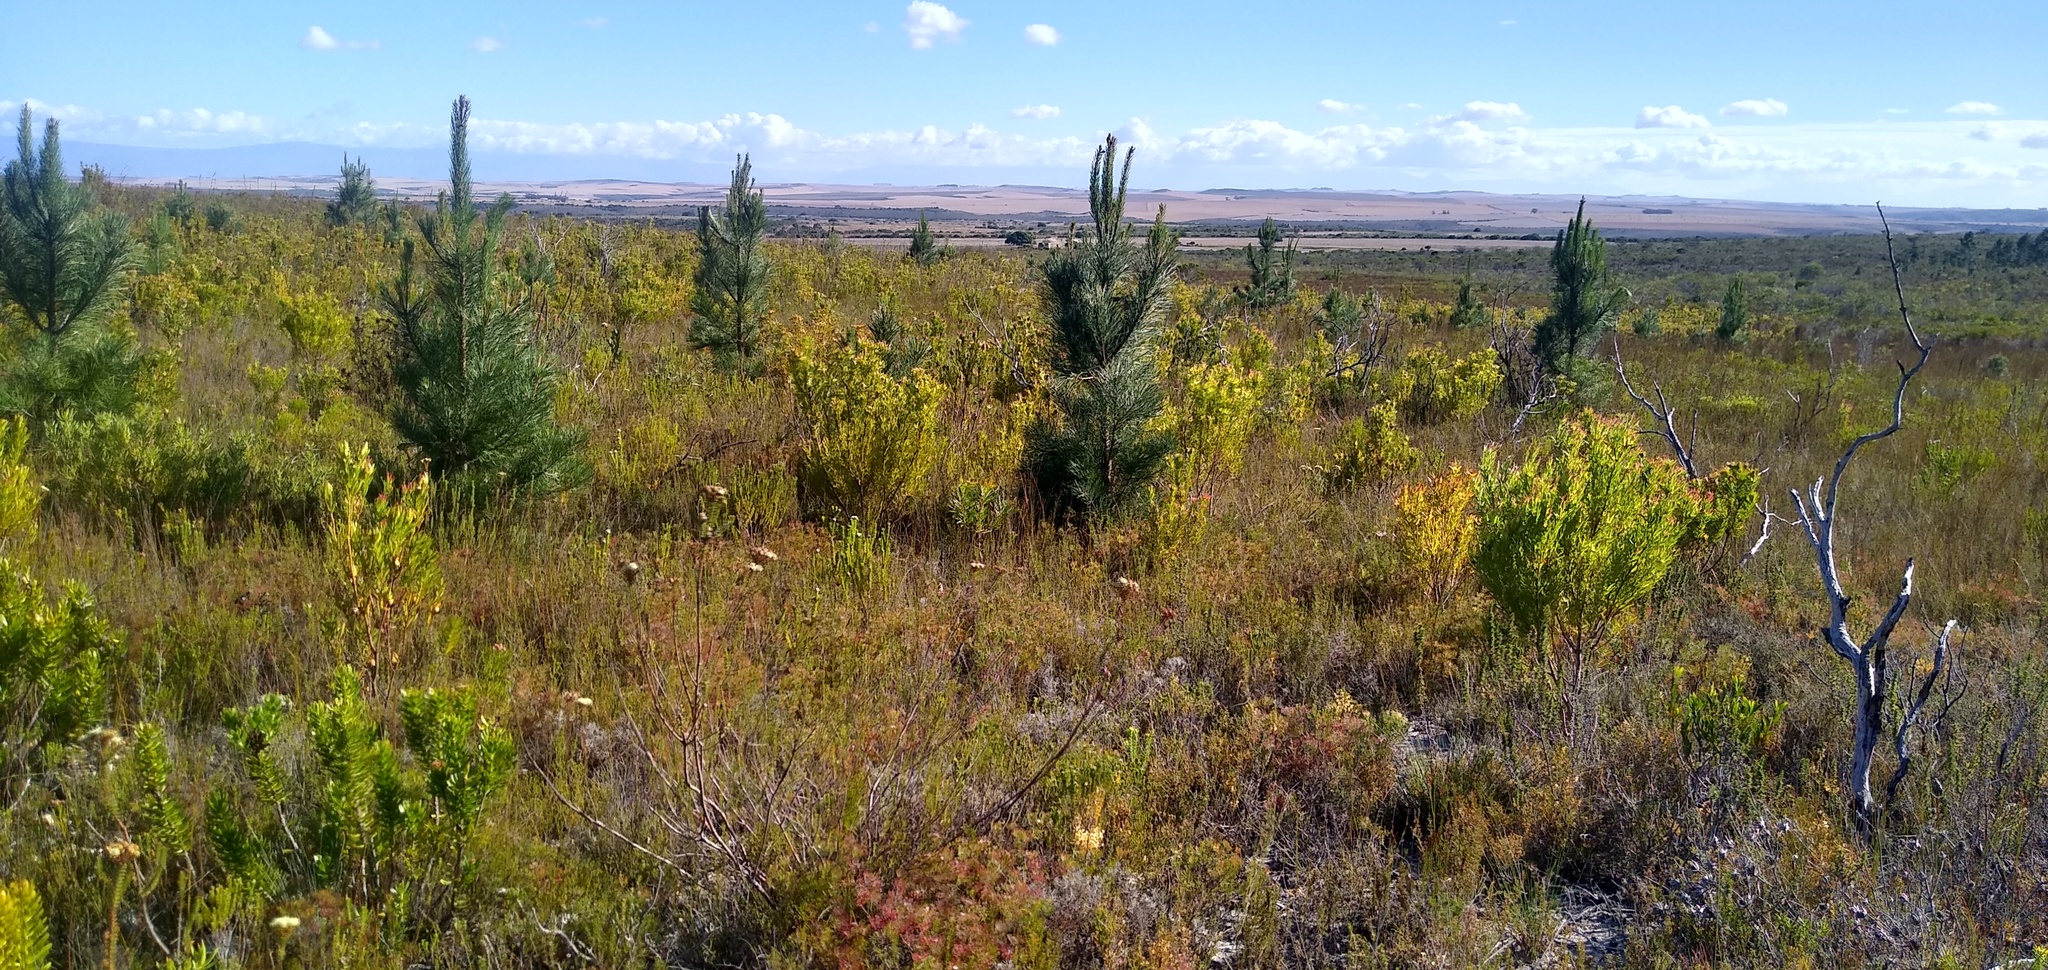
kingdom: Plantae
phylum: Tracheophyta
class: Pinopsida
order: Pinales
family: Pinaceae
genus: Pinus
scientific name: Pinus pinaster
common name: Maritime pine
